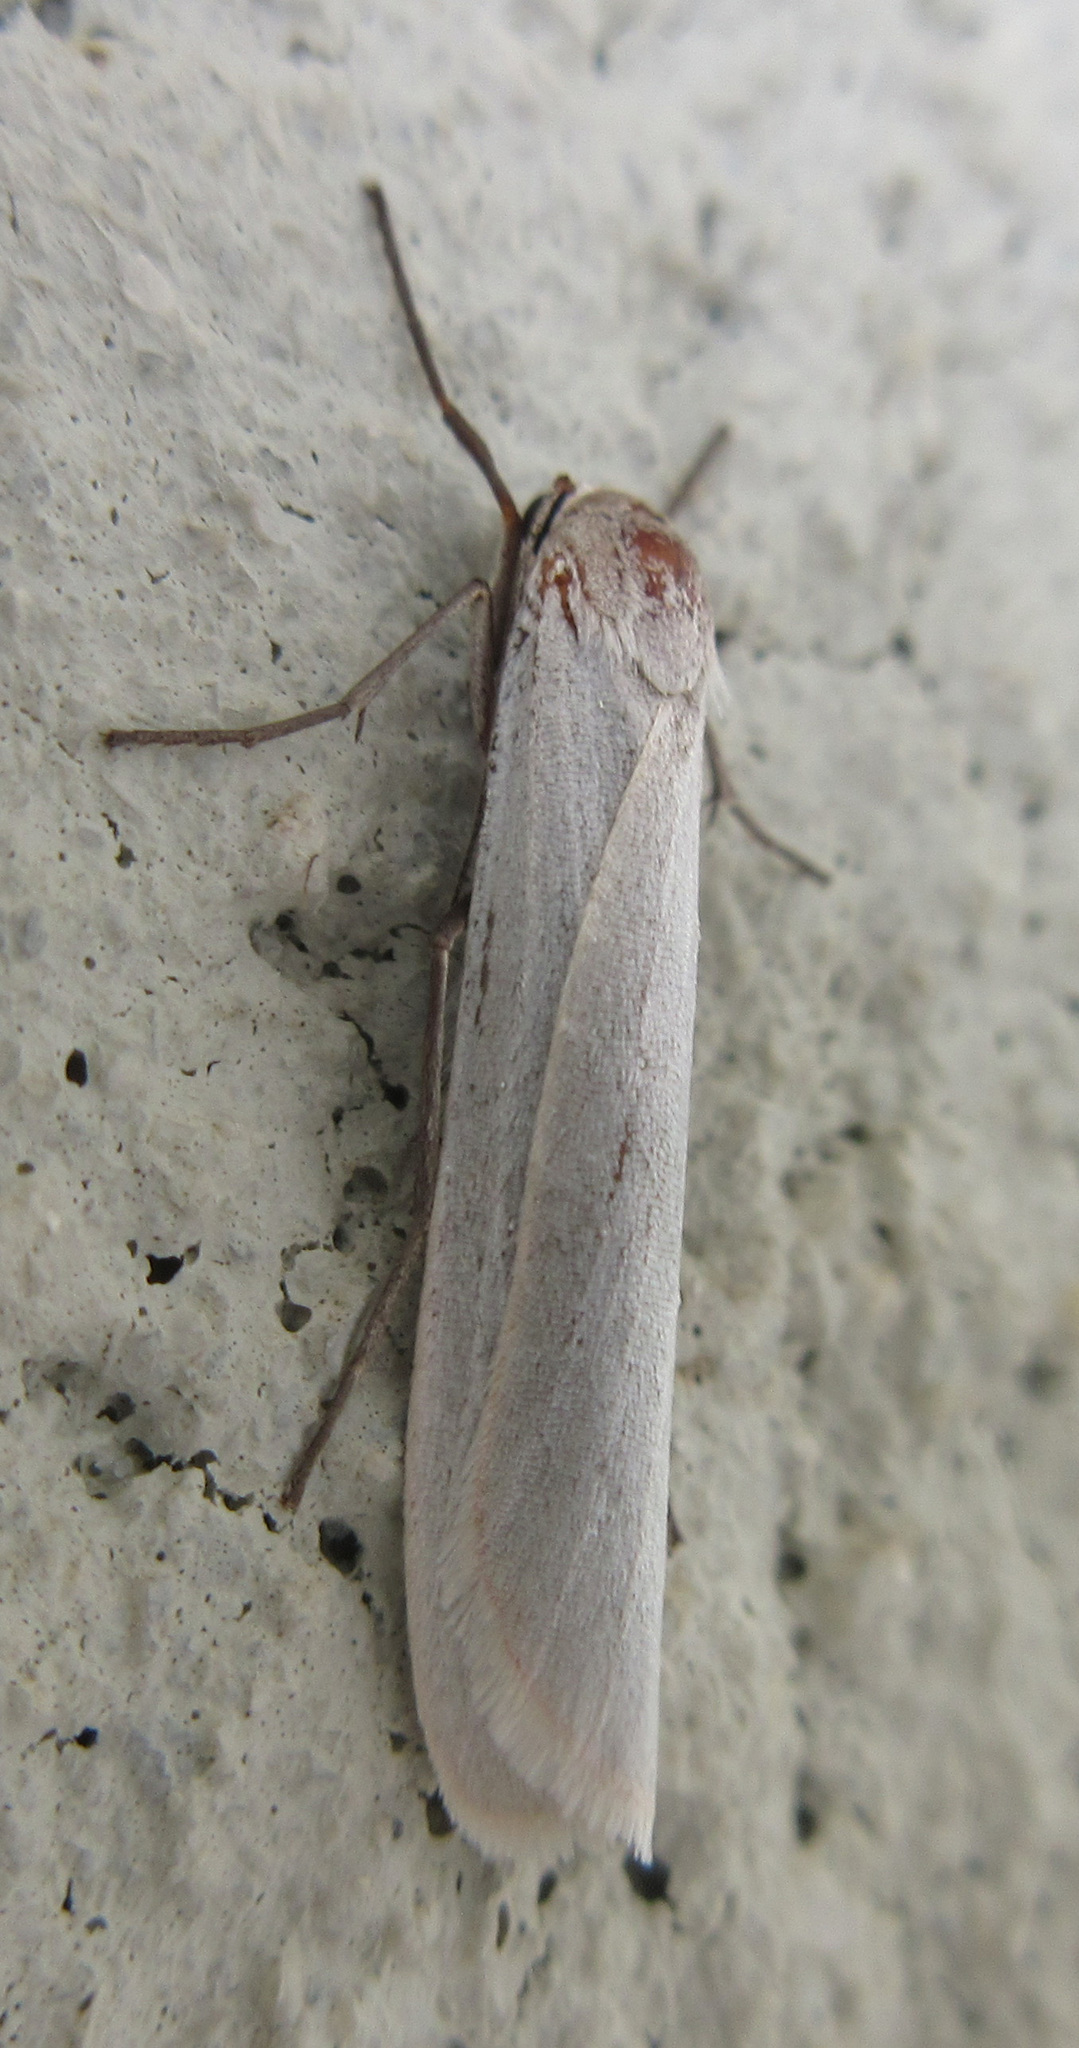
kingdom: Animalia
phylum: Arthropoda
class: Insecta
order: Lepidoptera
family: Erebidae
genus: Crambidia
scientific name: Crambidia casta
